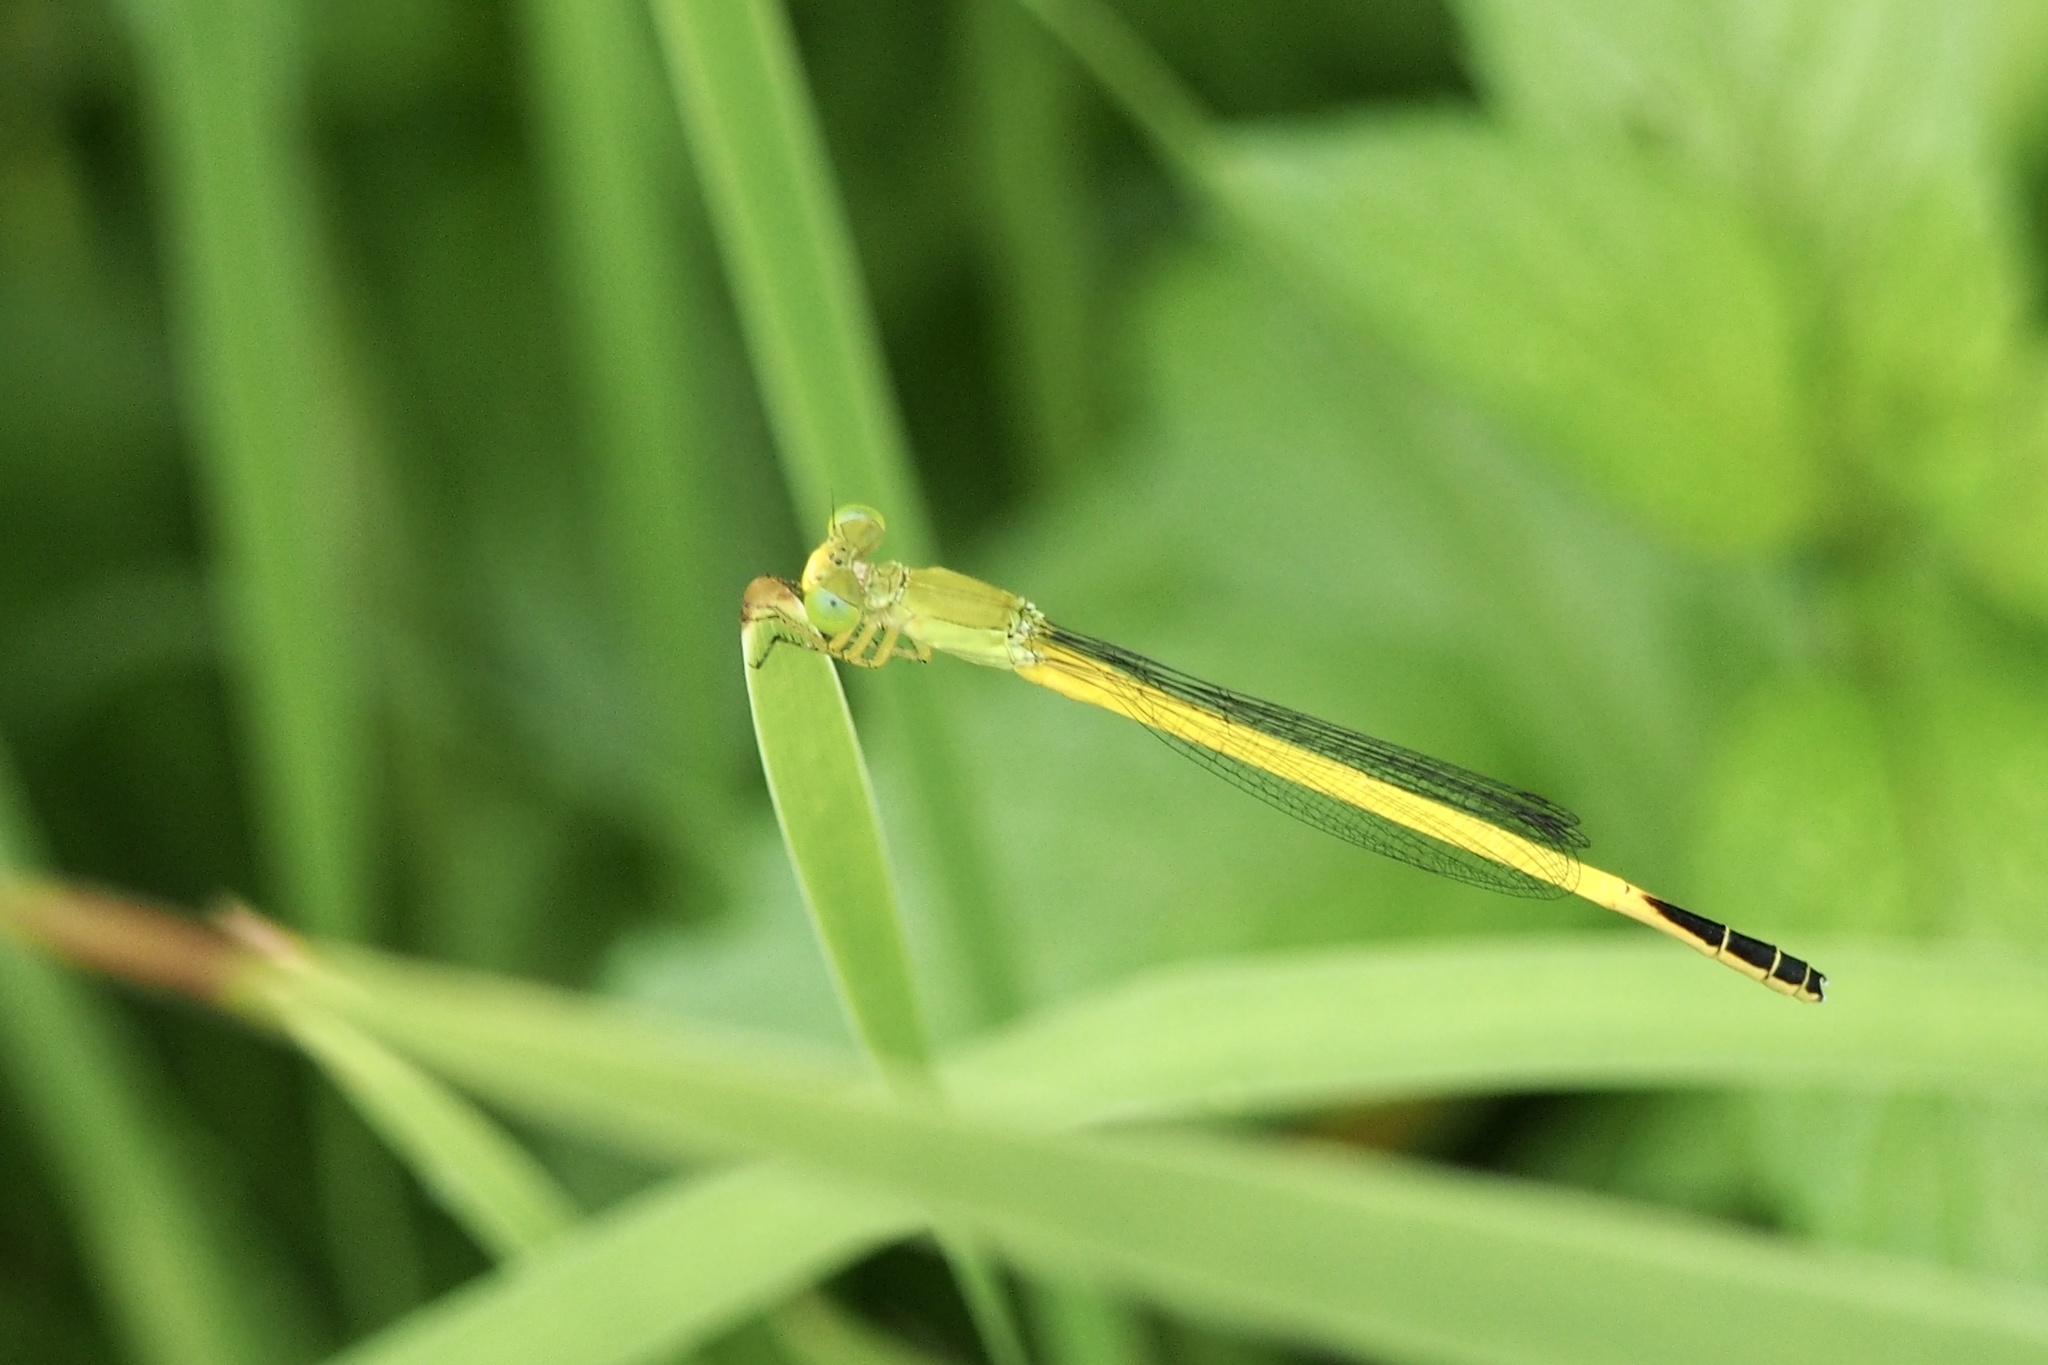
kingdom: Animalia
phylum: Arthropoda
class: Insecta
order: Odonata
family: Coenagrionidae
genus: Ceriagrion
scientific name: Ceriagrion melanurum
